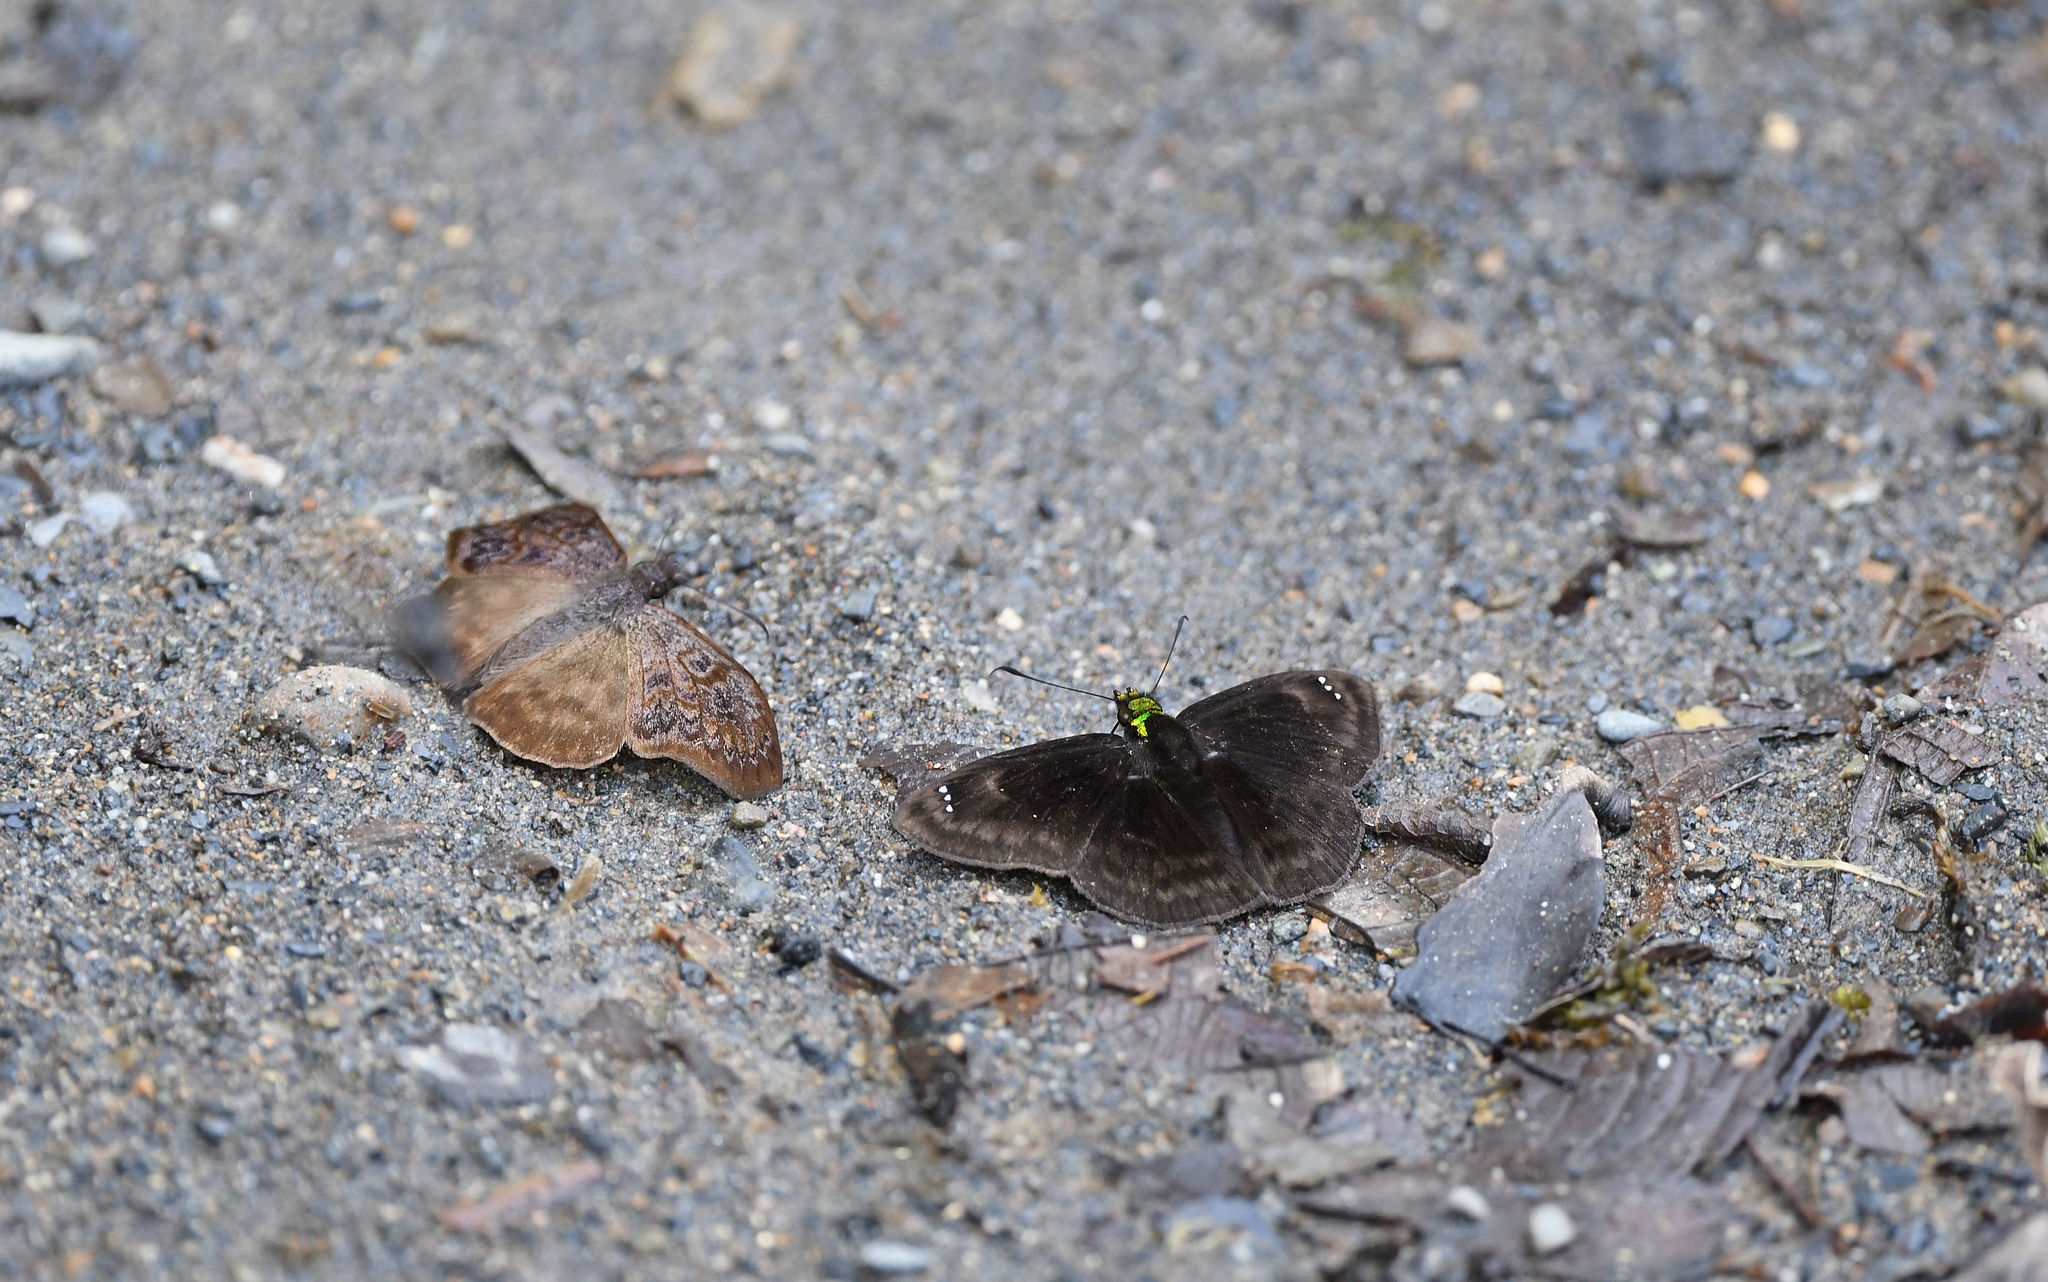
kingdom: Animalia
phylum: Arthropoda
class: Insecta
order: Lepidoptera
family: Hesperiidae
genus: Gorgopas
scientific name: Gorgopas chlorocephala
